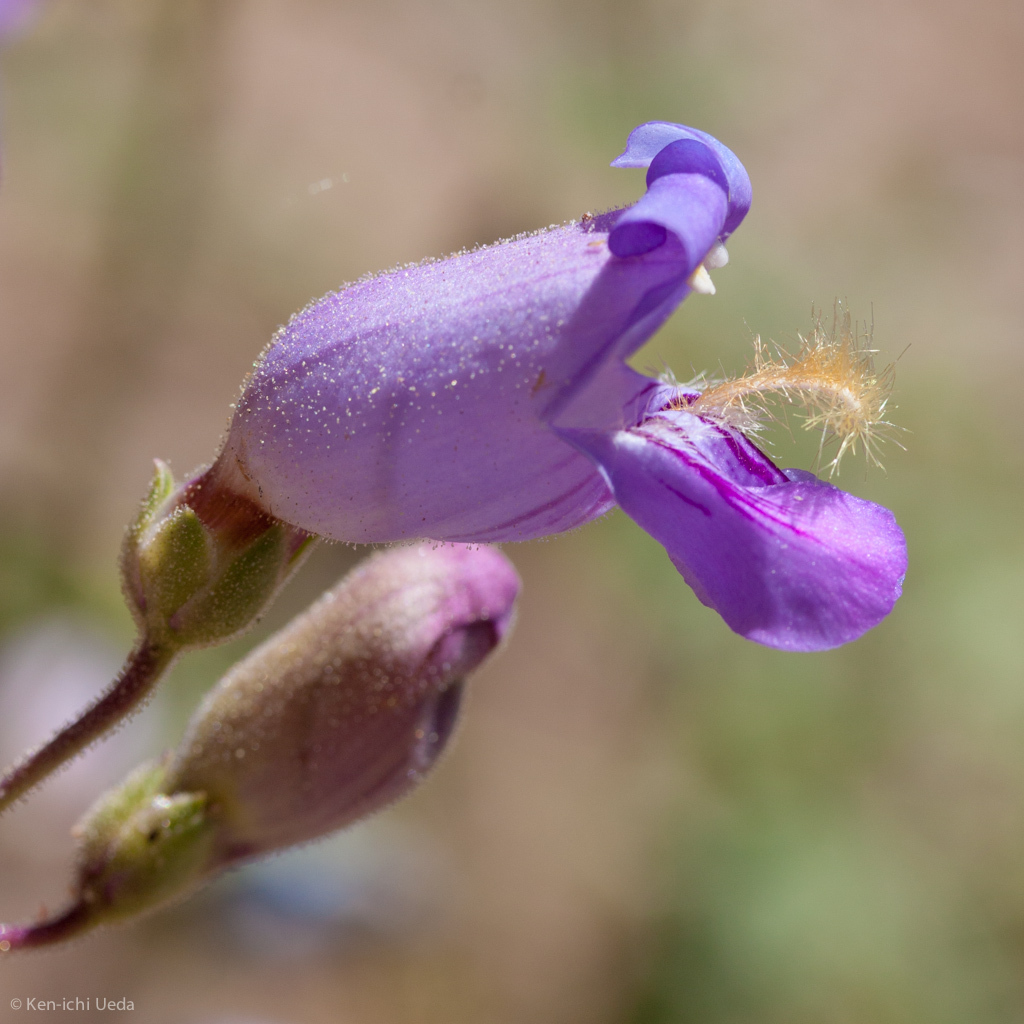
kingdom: Plantae
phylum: Tracheophyta
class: Magnoliopsida
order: Lamiales
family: Plantaginaceae
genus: Penstemon
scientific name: Penstemon grinnellii
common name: Grinnell's beardtongue
